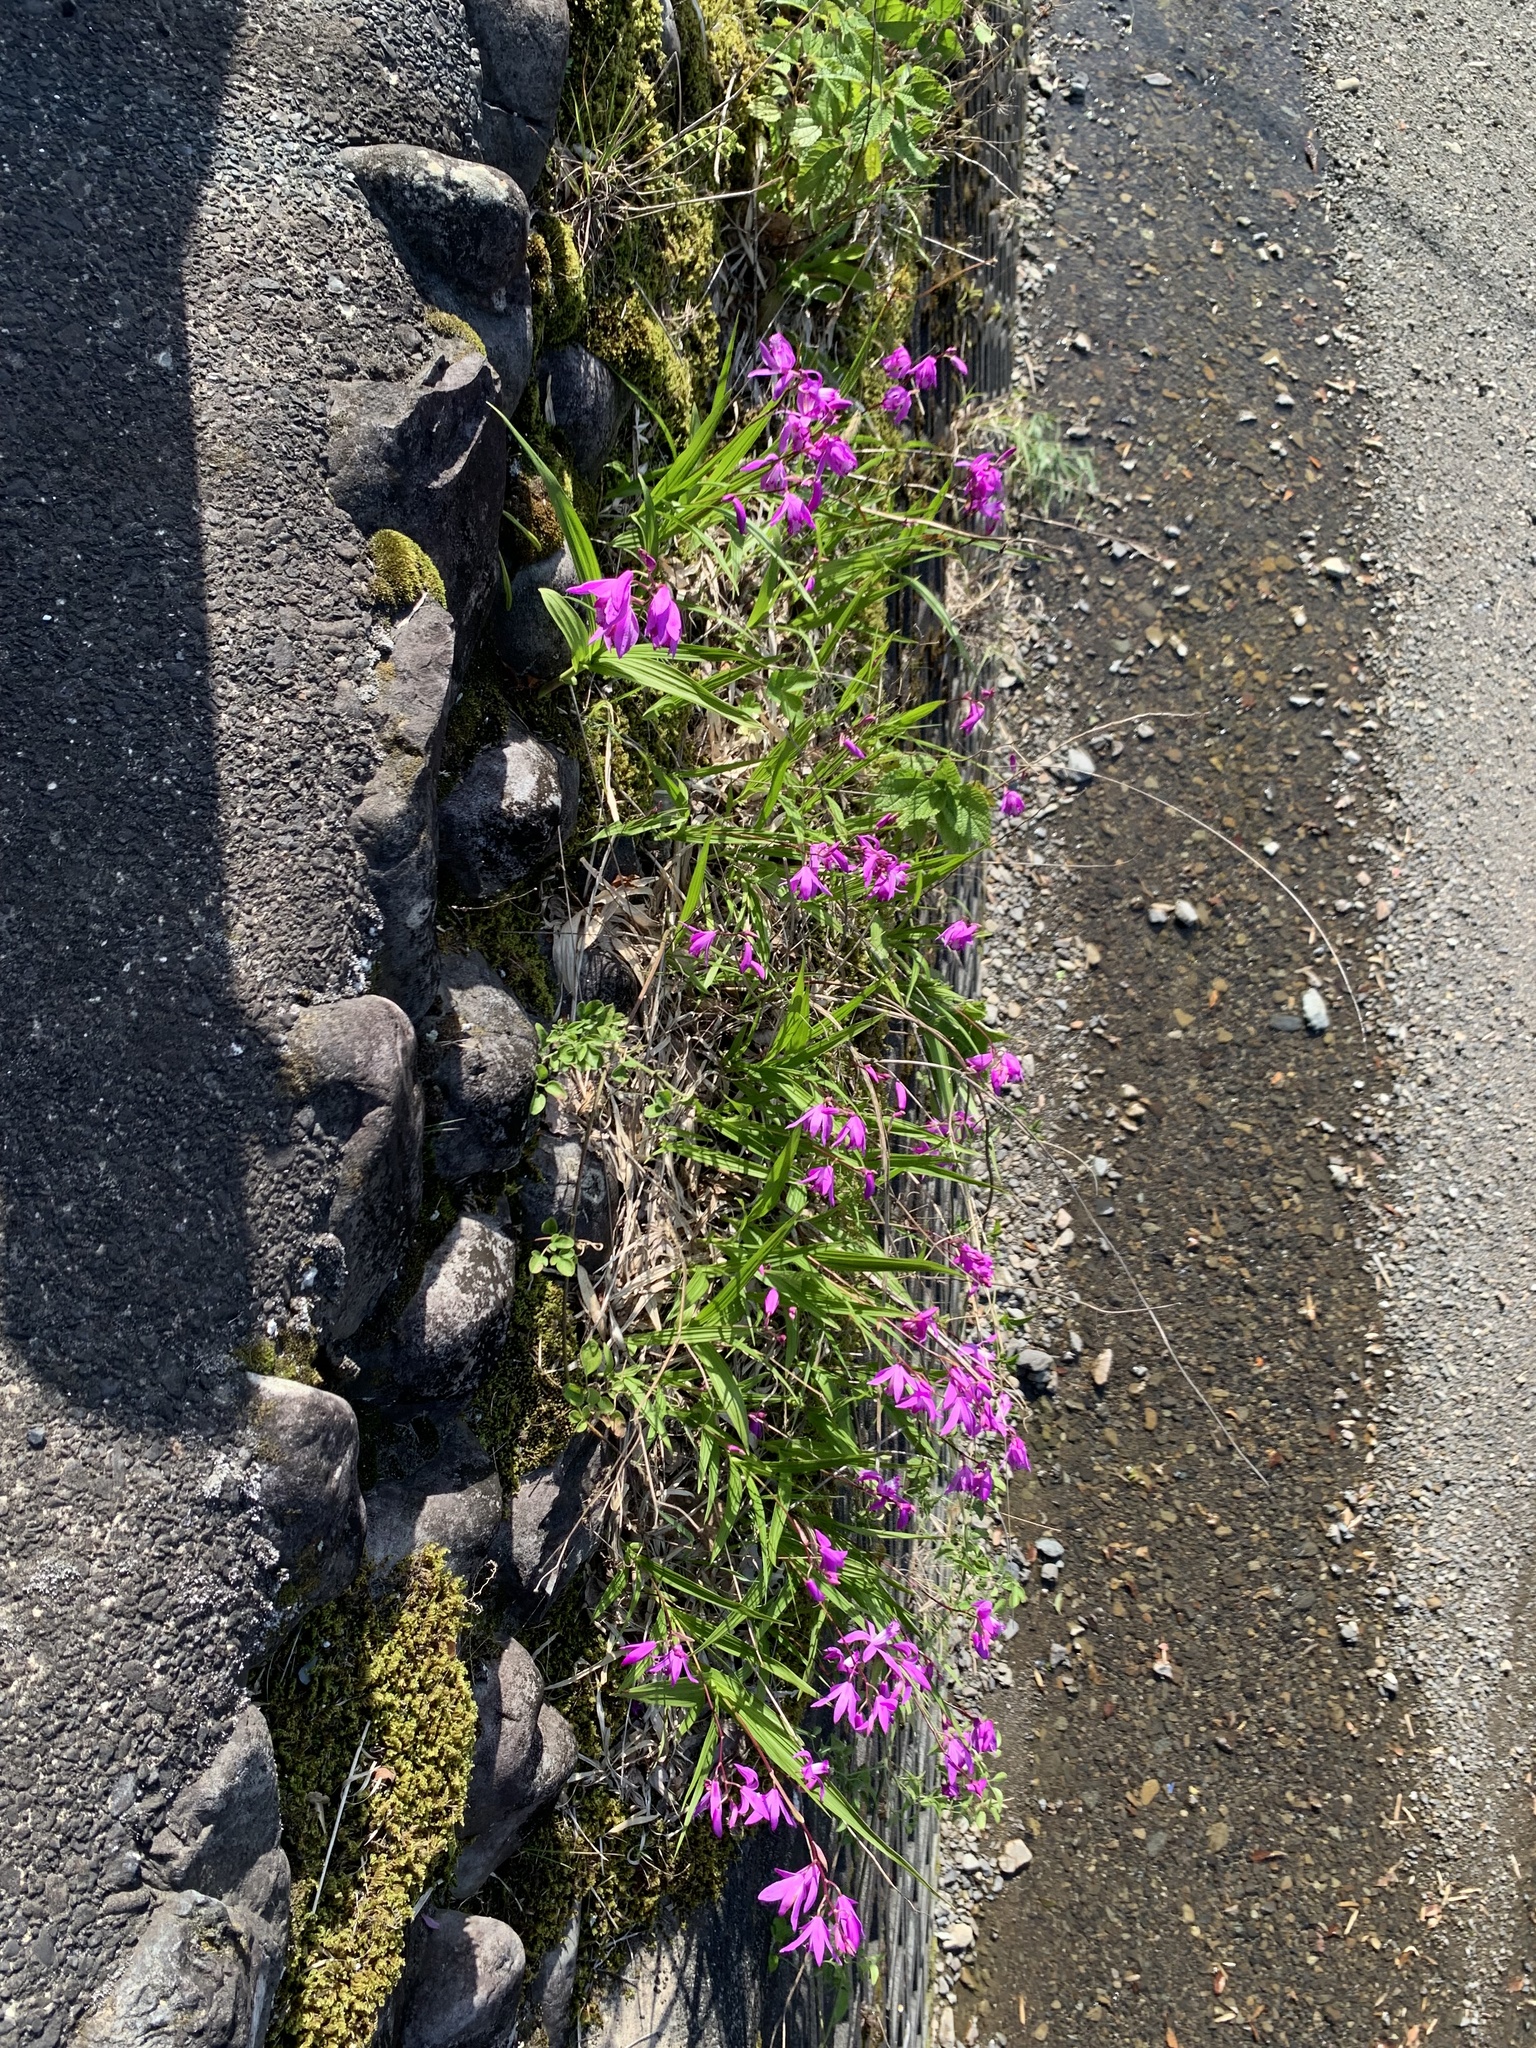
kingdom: Plantae
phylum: Tracheophyta
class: Liliopsida
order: Asparagales
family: Orchidaceae
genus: Bletilla
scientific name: Bletilla striata
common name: Hyacinth orchid
